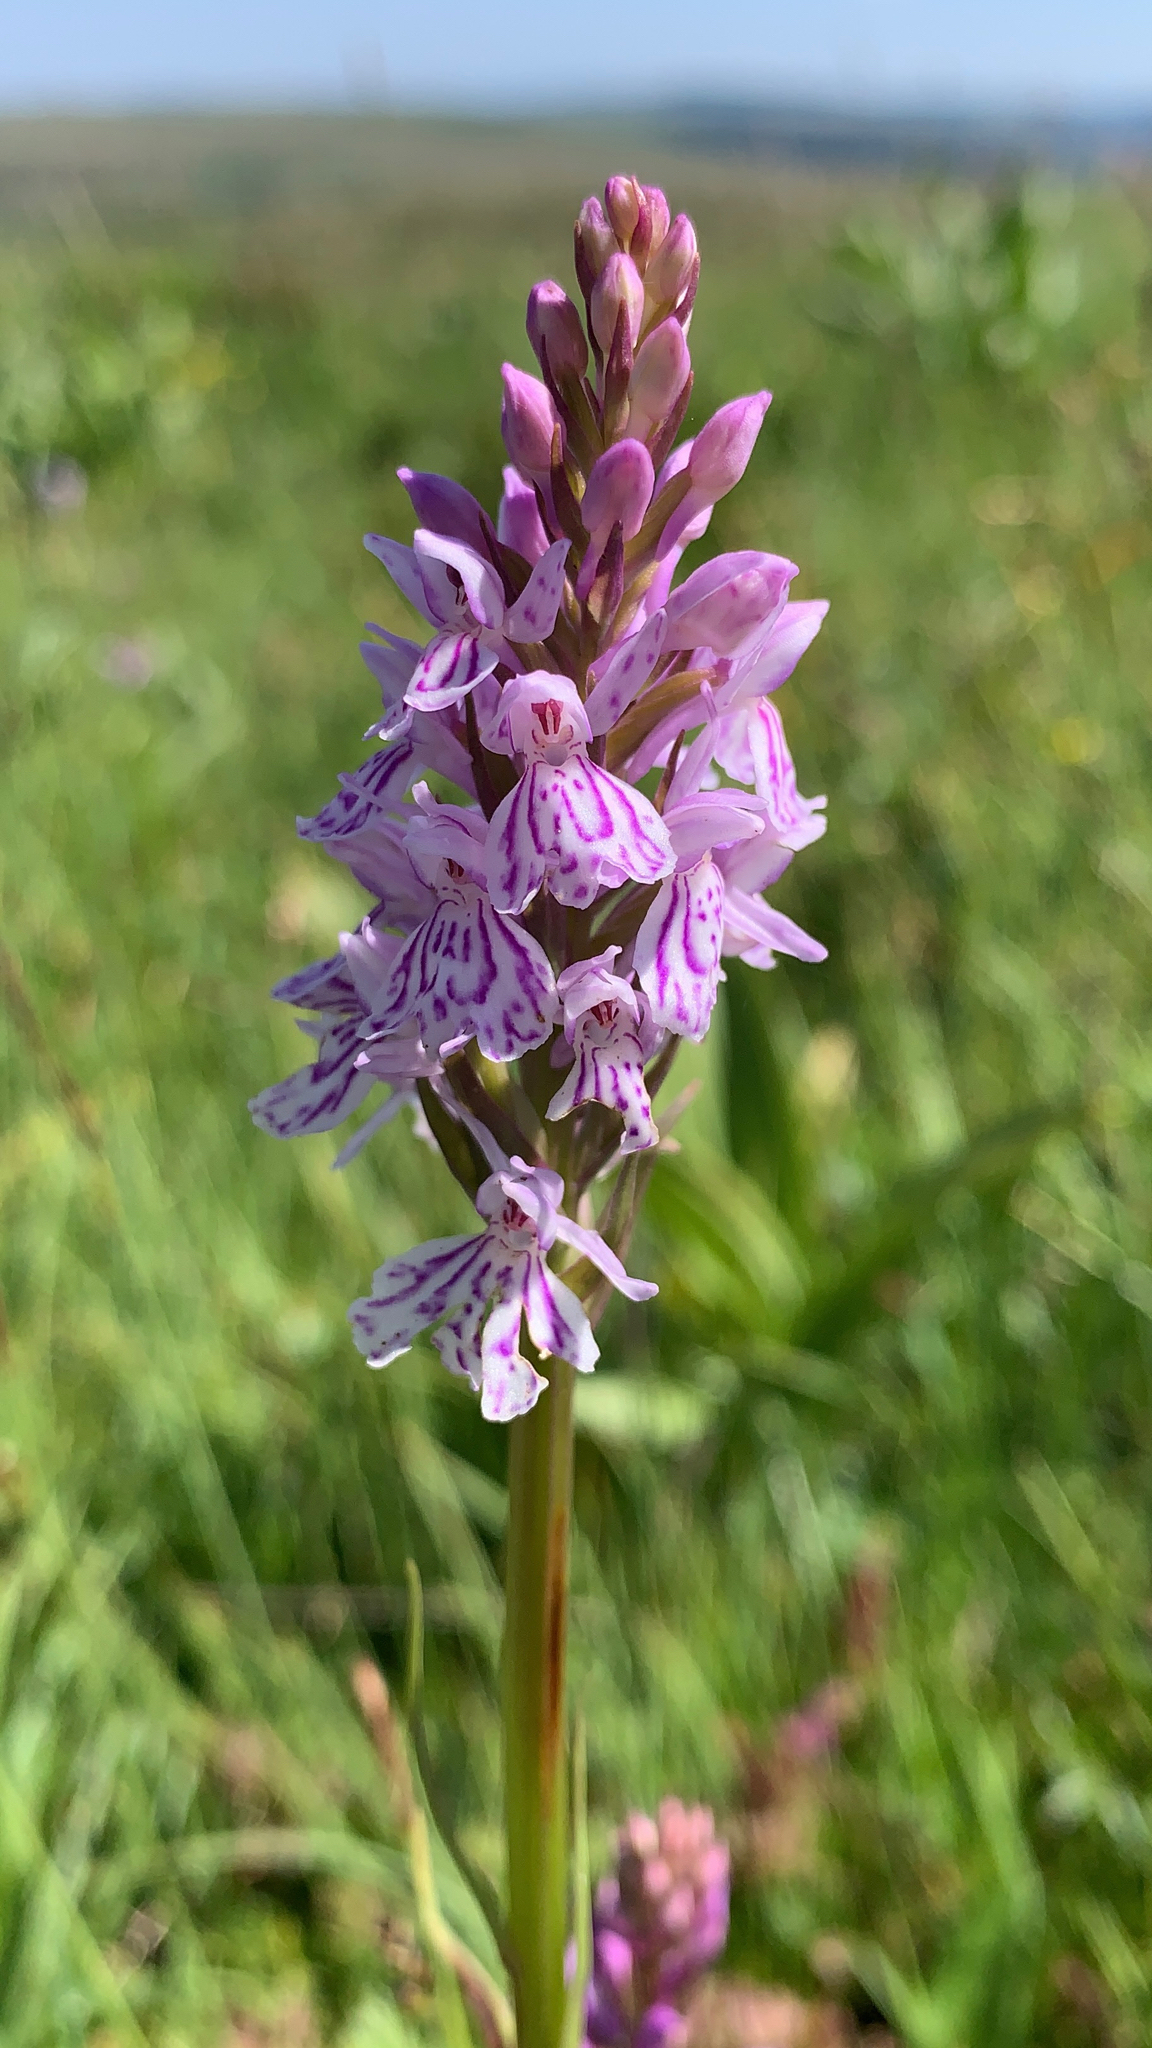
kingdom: Plantae
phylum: Tracheophyta
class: Liliopsida
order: Asparagales
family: Orchidaceae
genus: Dactylorhiza
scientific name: Dactylorhiza maculata
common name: Heath spotted-orchid
